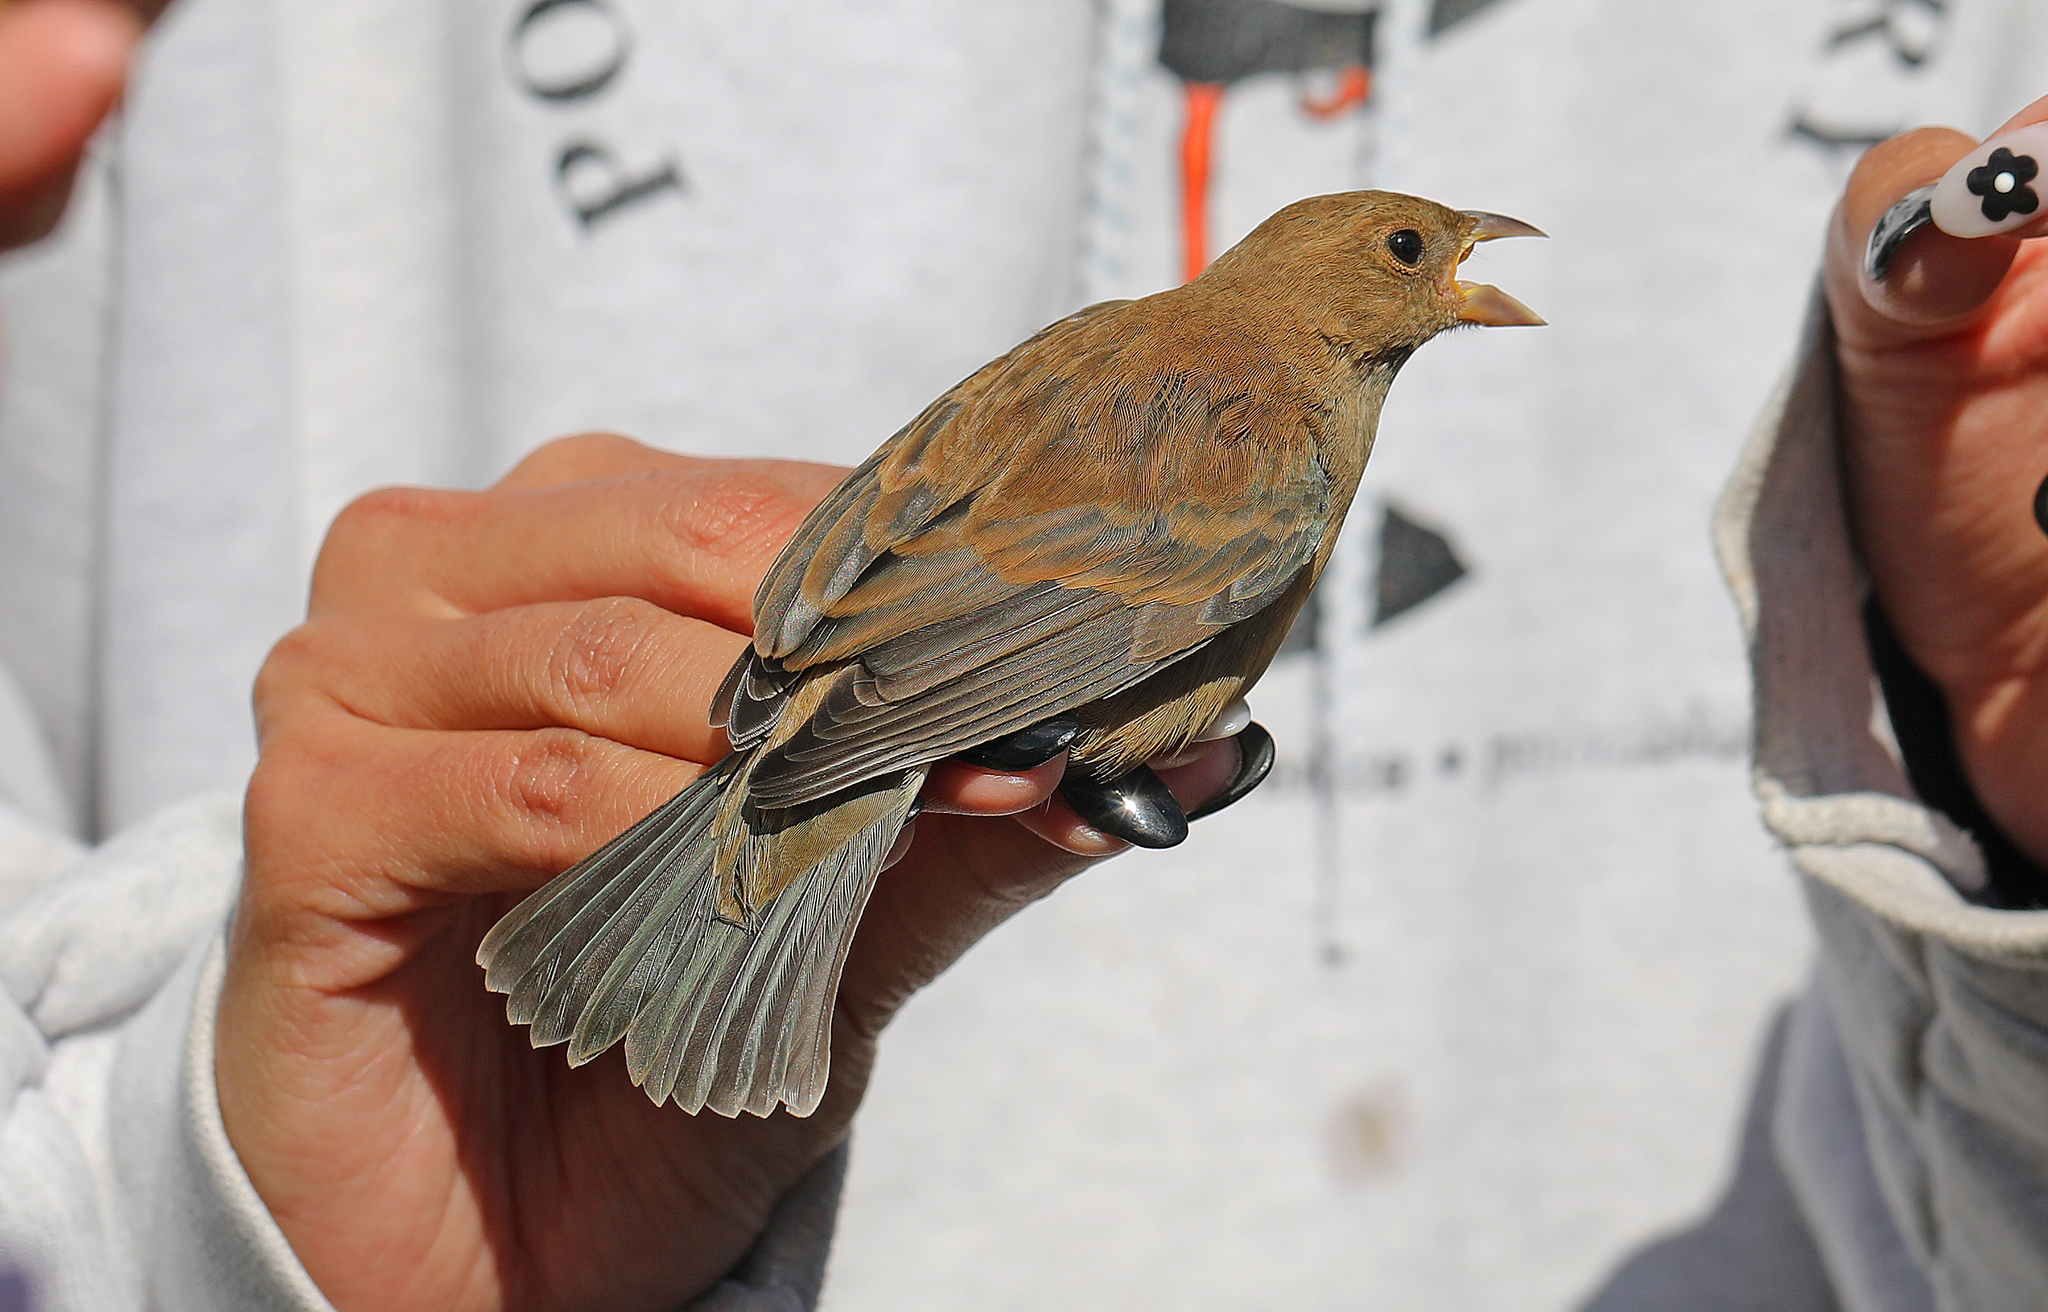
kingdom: Animalia
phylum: Chordata
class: Aves
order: Passeriformes
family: Cardinalidae
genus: Passerina
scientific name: Passerina cyanea
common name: Indigo bunting
